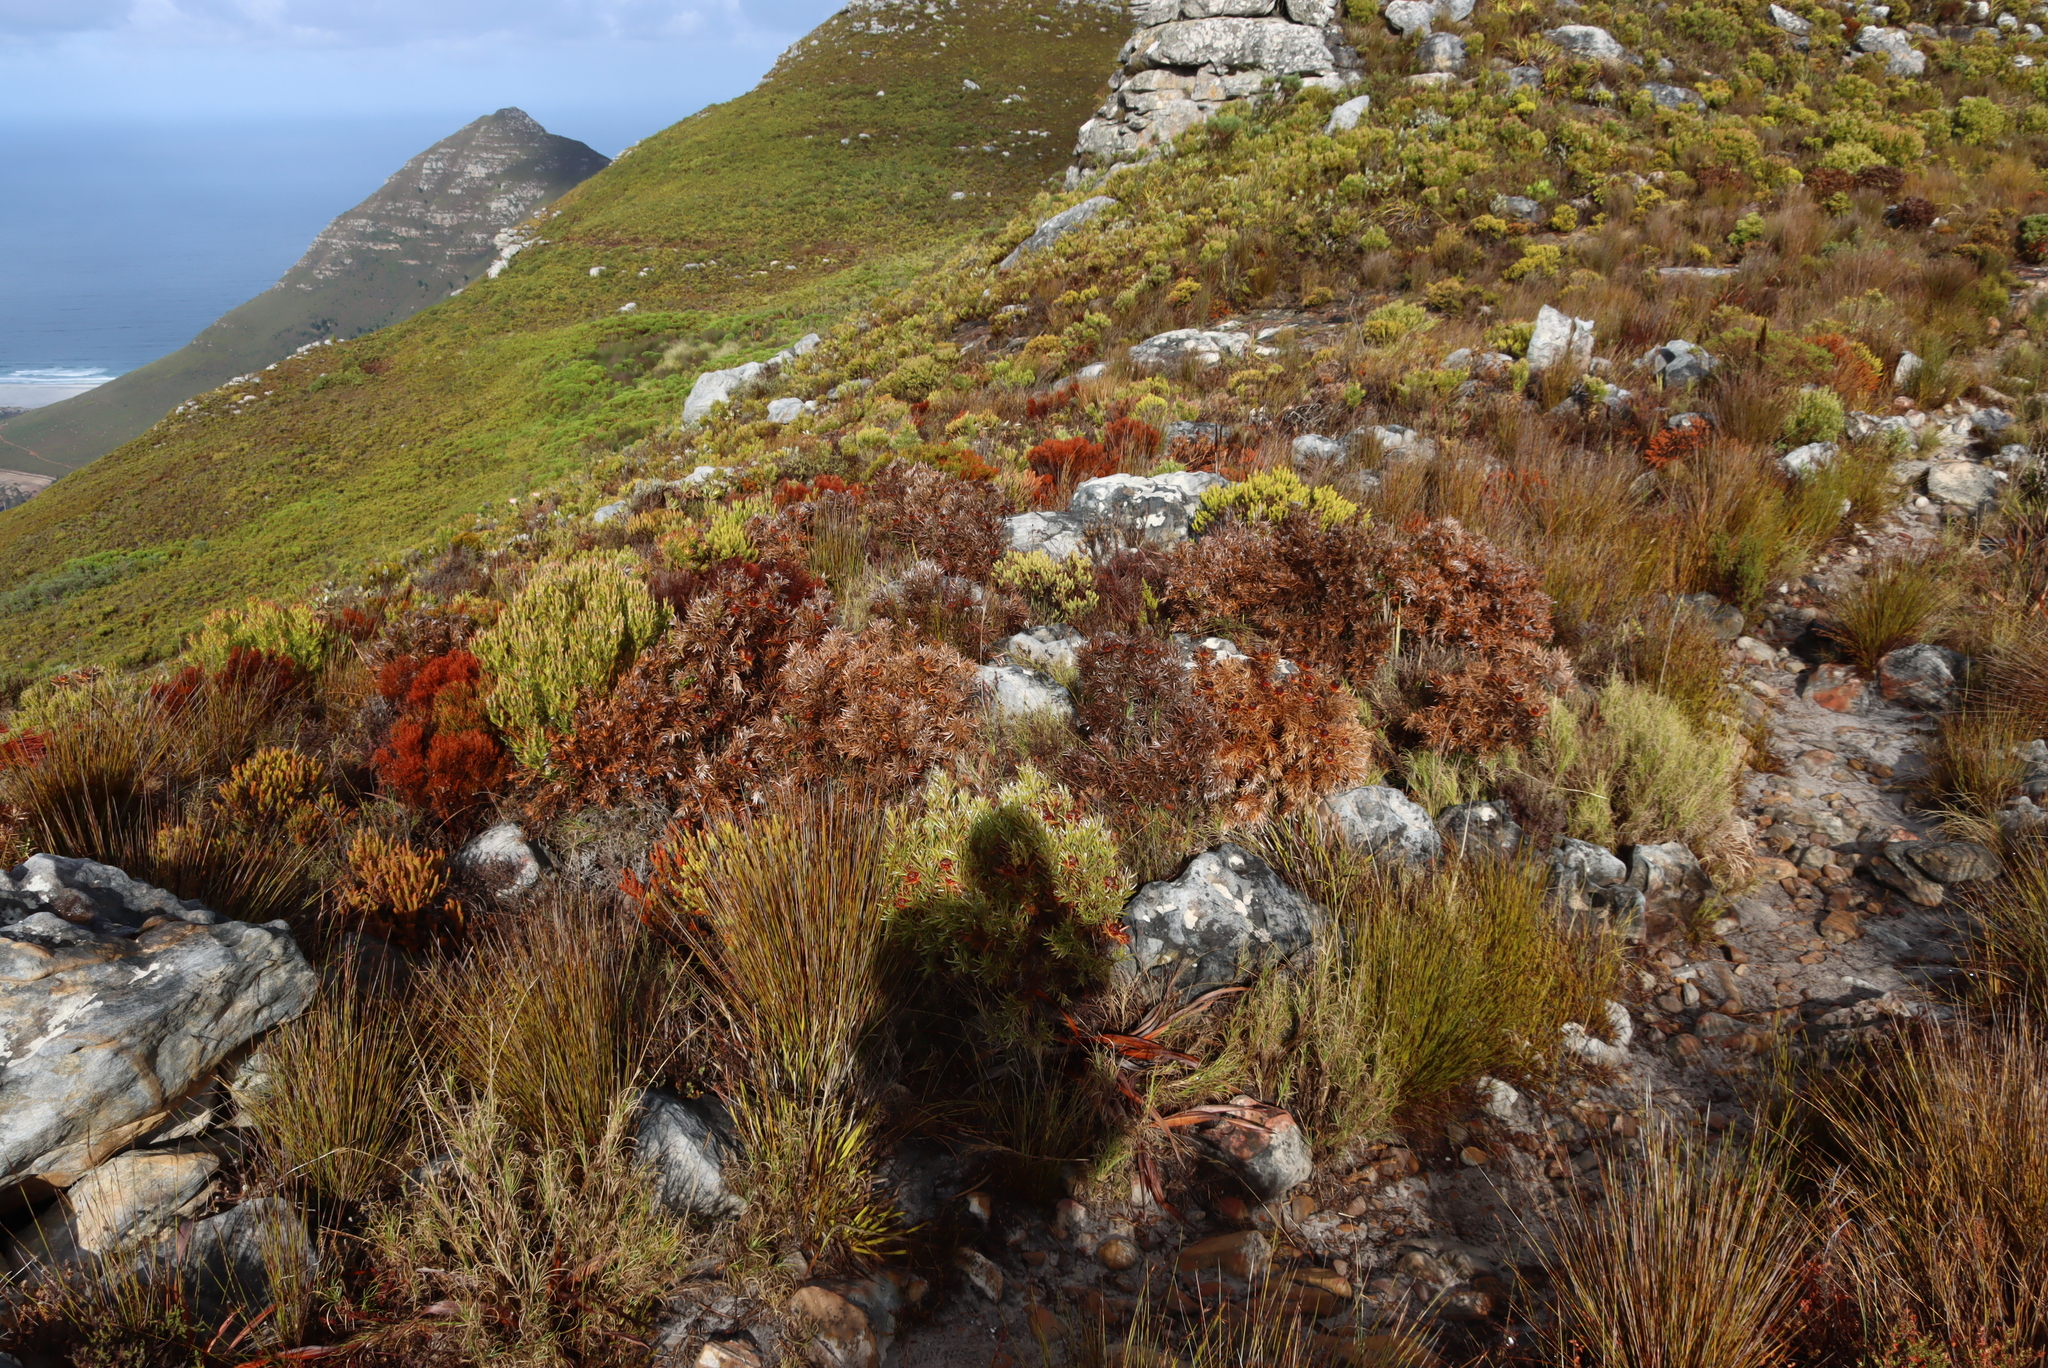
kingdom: Plantae
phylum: Tracheophyta
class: Magnoliopsida
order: Proteales
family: Proteaceae
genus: Leucadendron
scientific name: Leucadendron xanthoconus
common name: Sickle-leaf conebush
